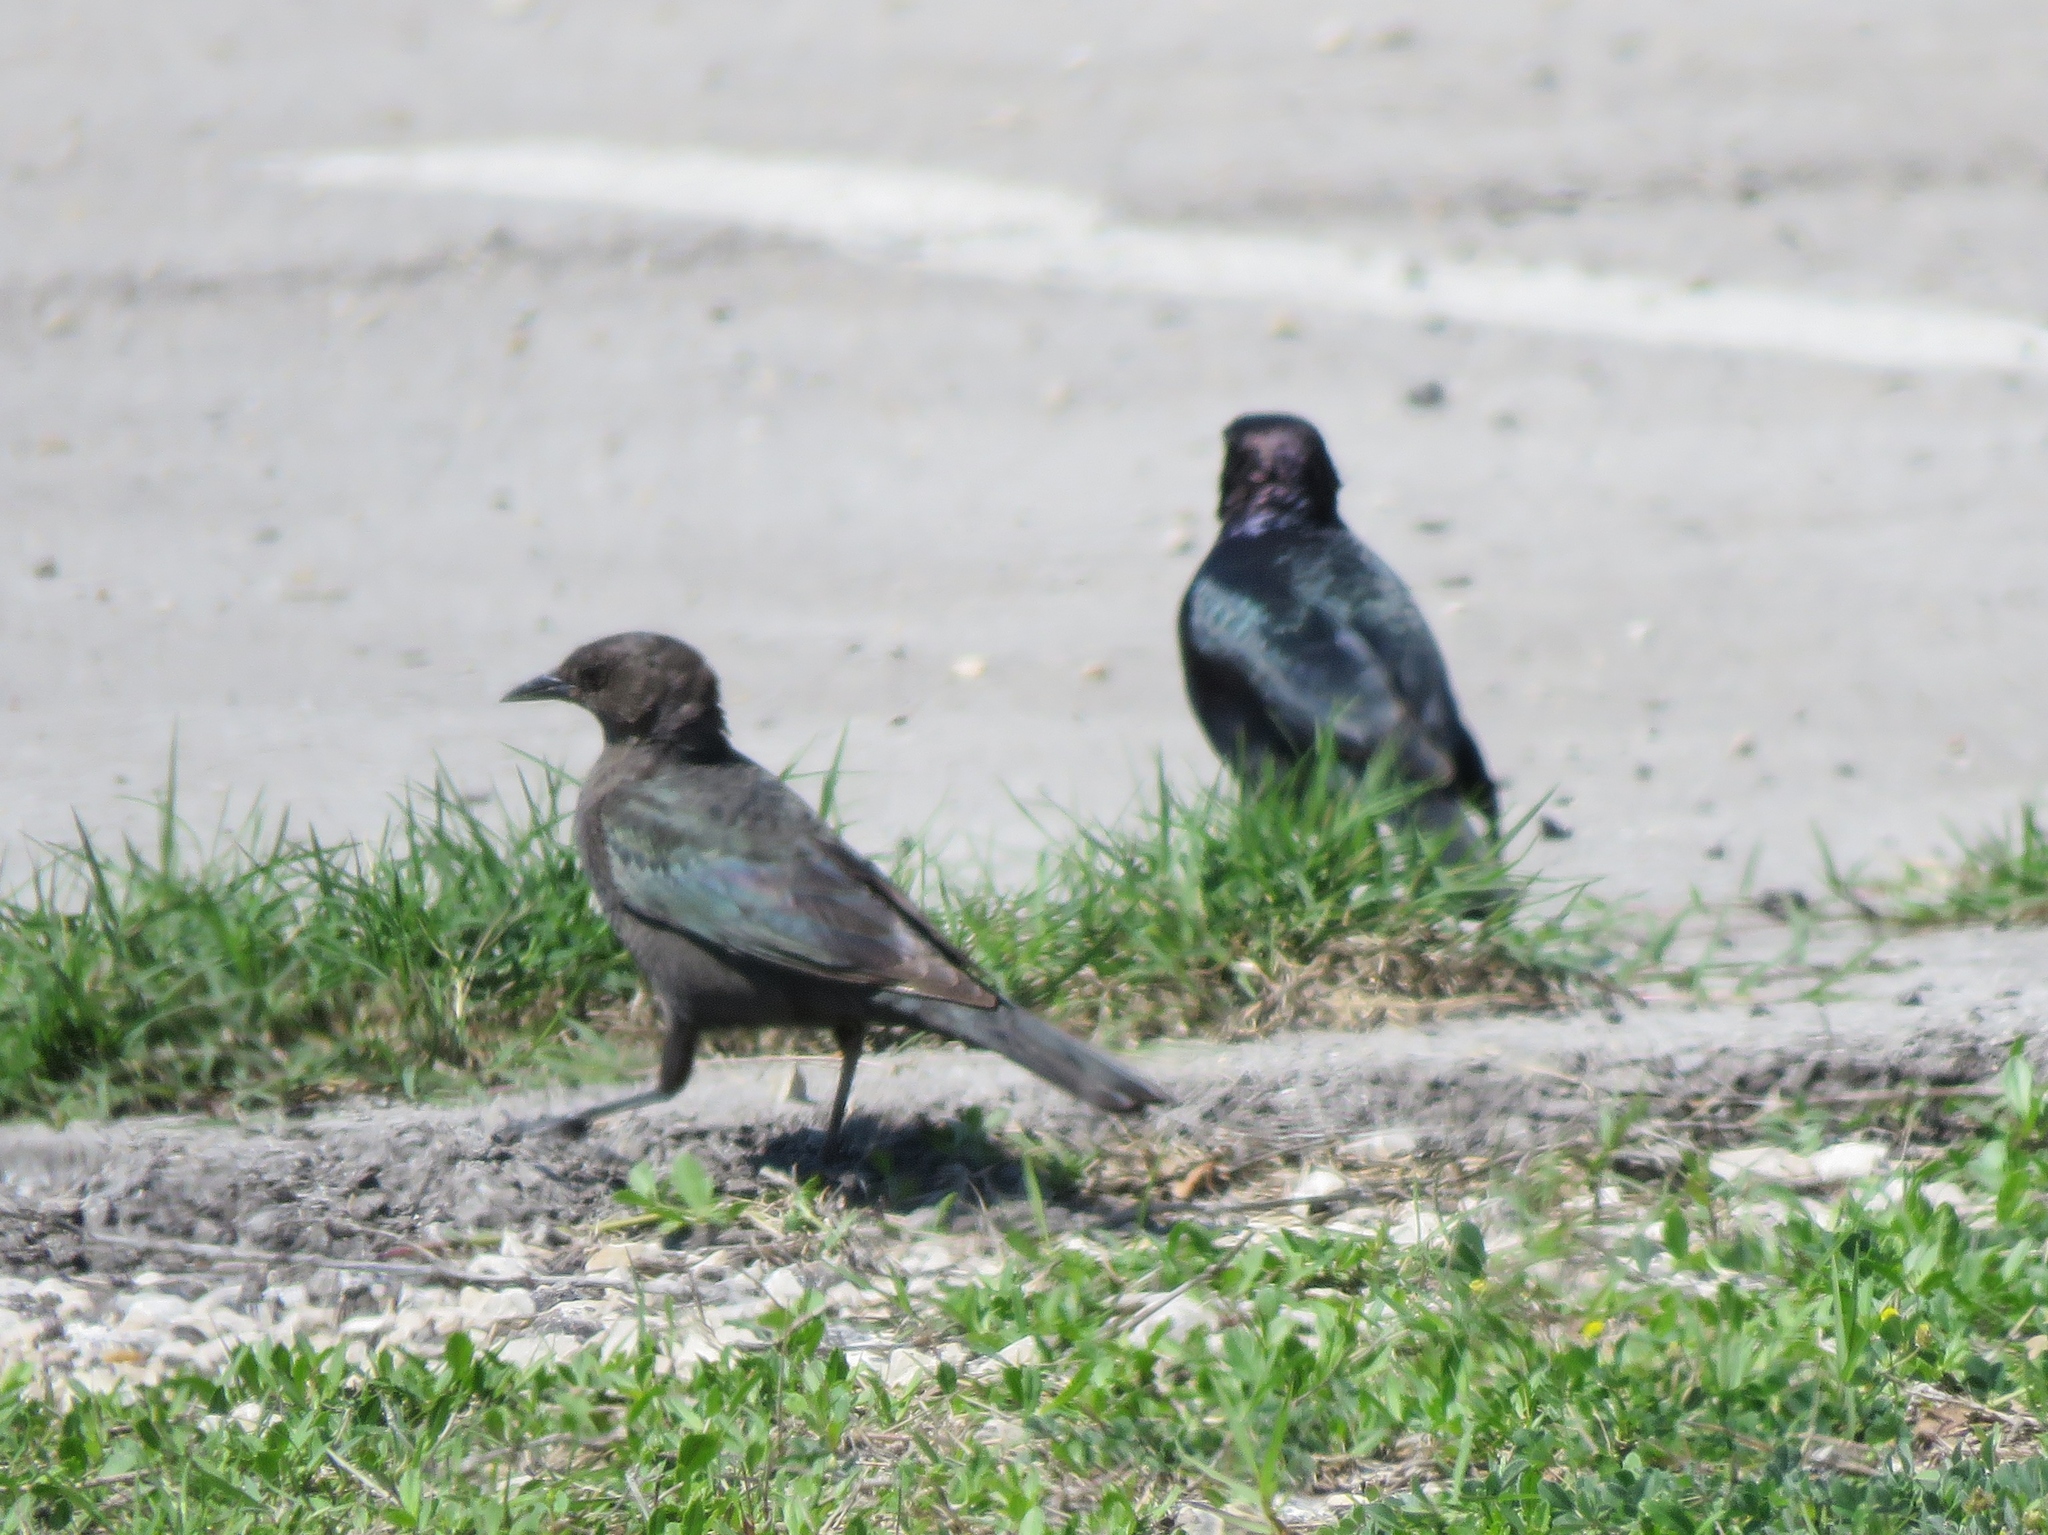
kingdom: Animalia
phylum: Chordata
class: Aves
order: Passeriformes
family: Icteridae
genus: Euphagus
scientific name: Euphagus cyanocephalus
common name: Brewer's blackbird
